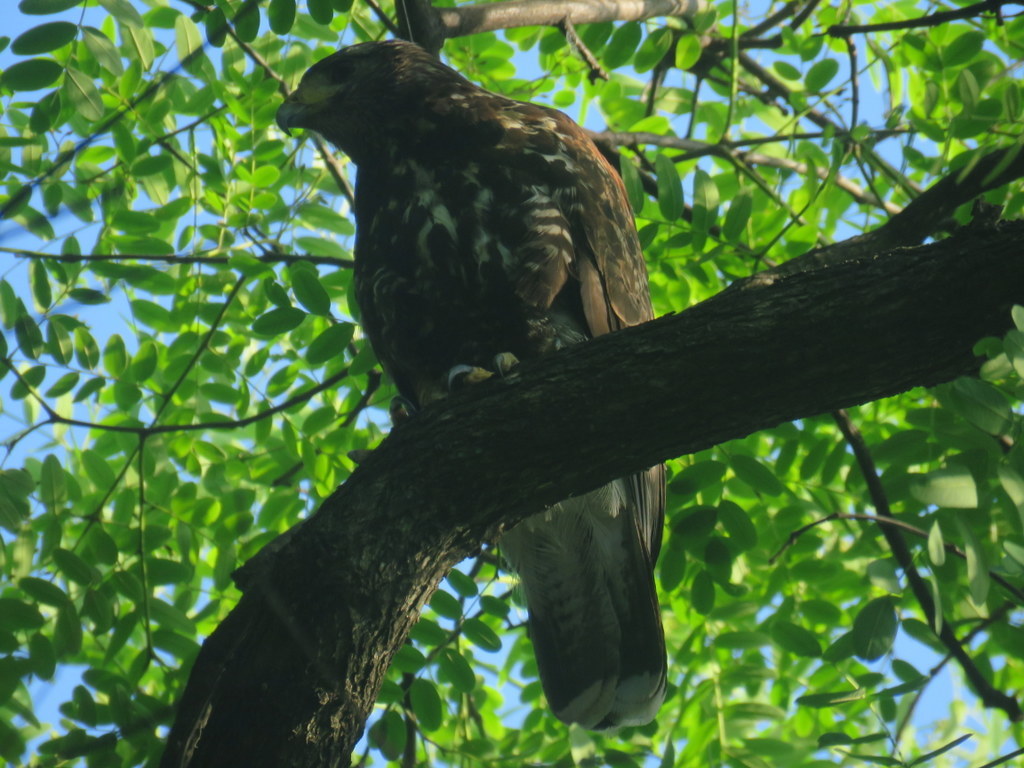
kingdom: Animalia
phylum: Chordata
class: Aves
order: Accipitriformes
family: Accipitridae
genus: Parabuteo
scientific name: Parabuteo unicinctus
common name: Harris's hawk
